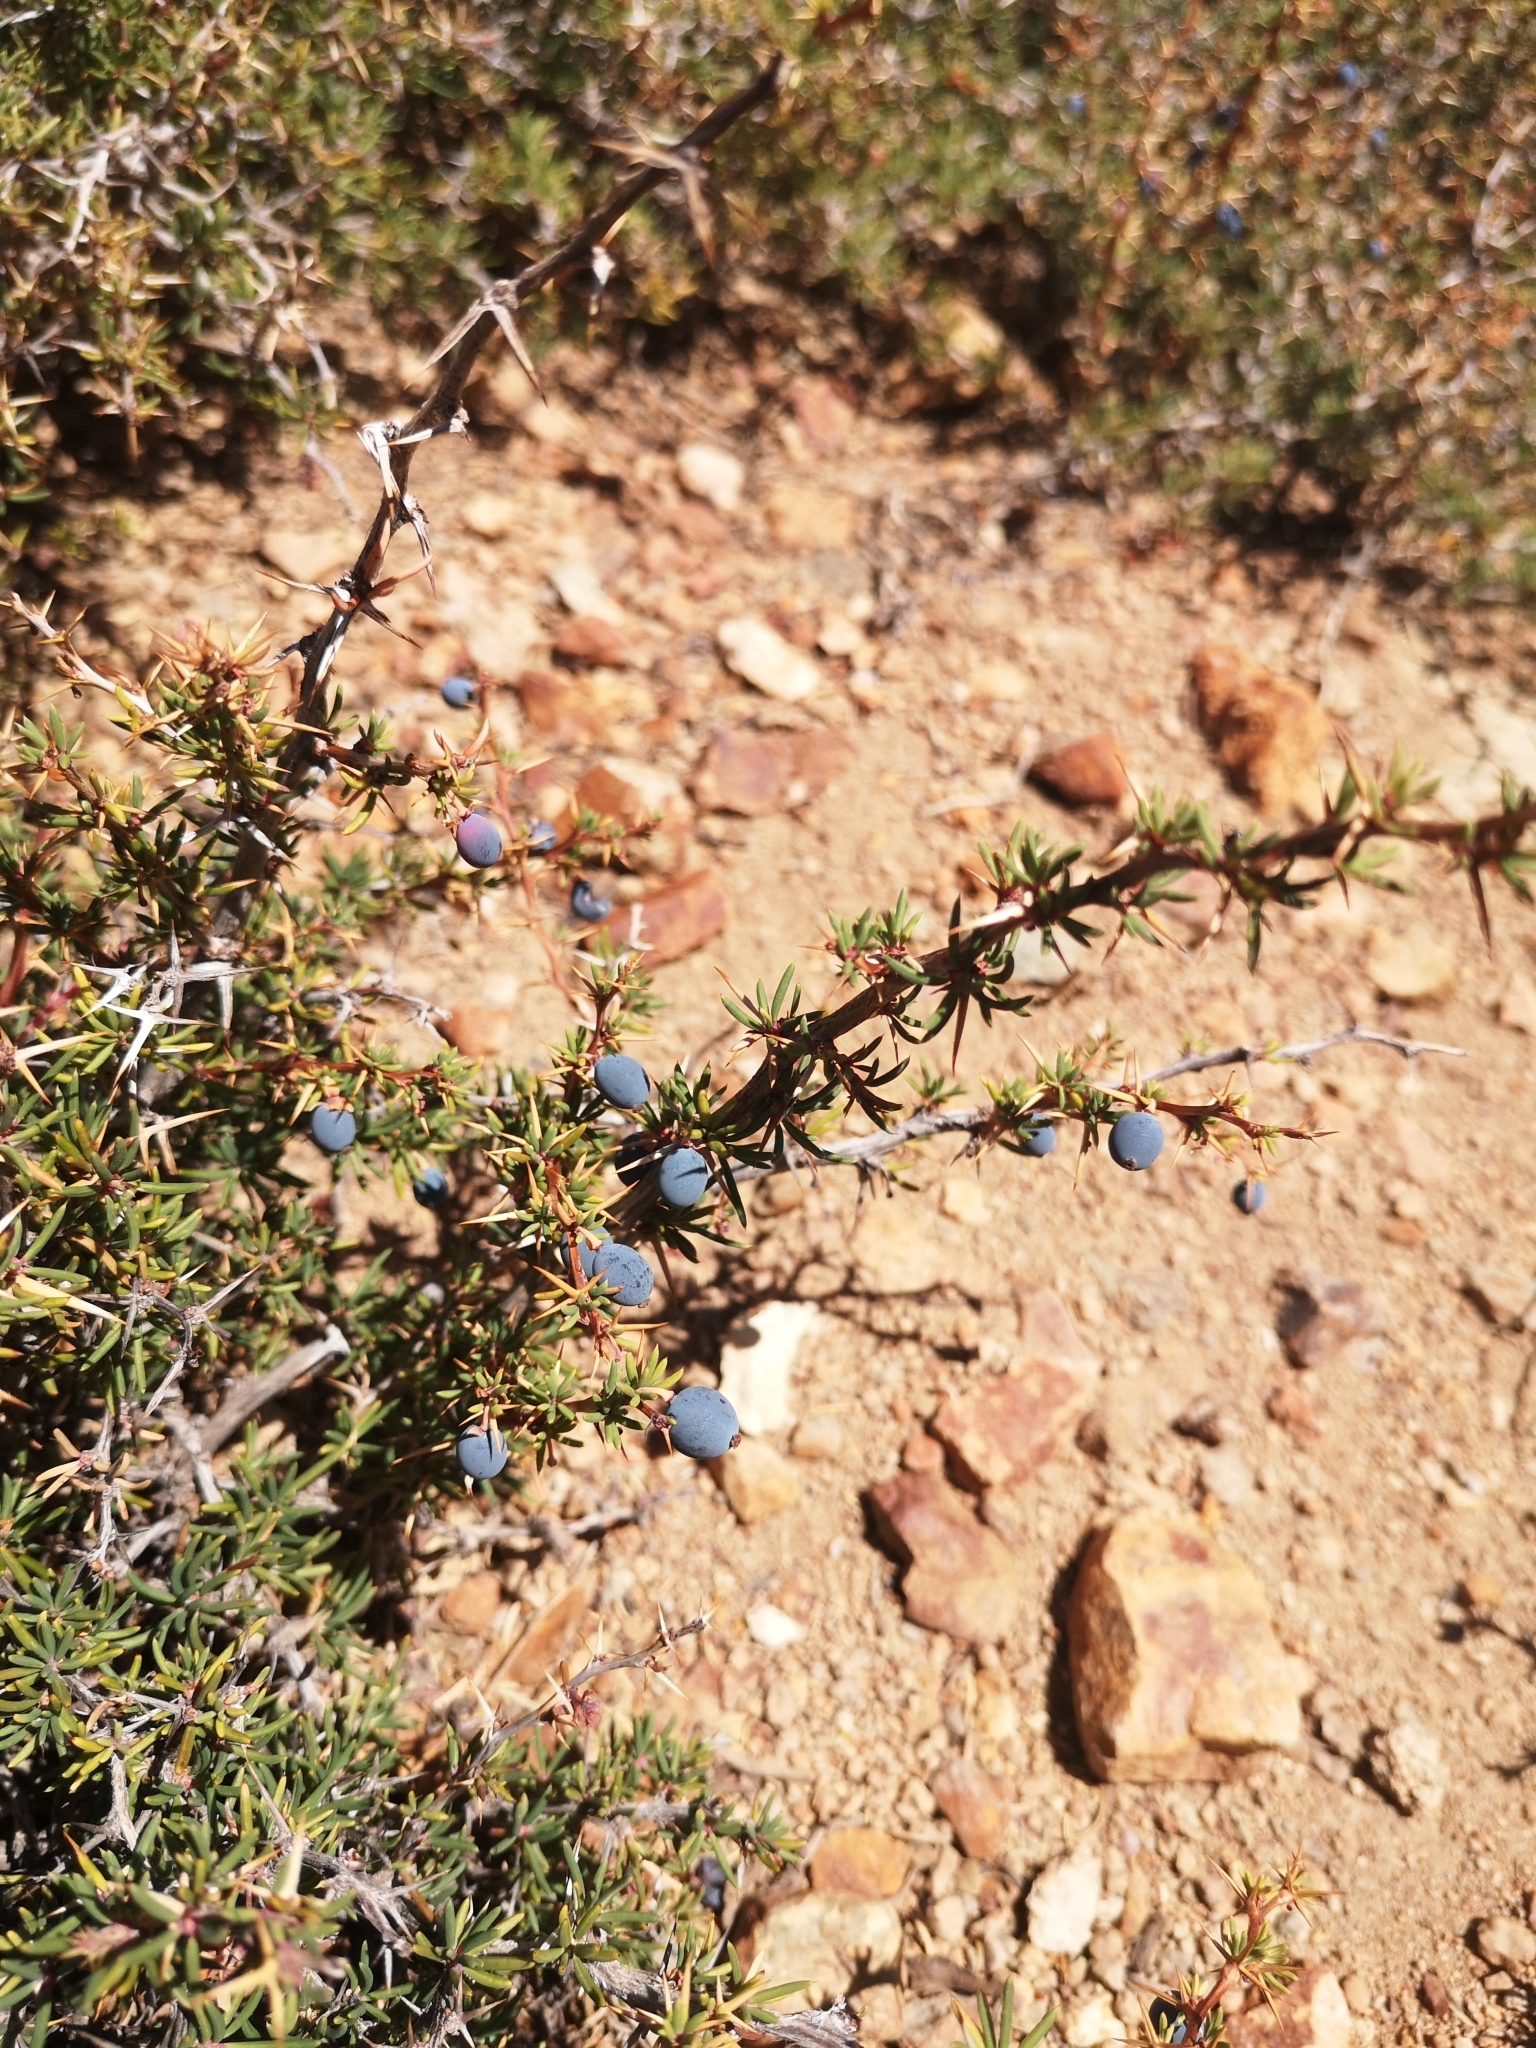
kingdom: Plantae
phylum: Tracheophyta
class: Magnoliopsida
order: Ranunculales
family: Berberidaceae
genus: Berberis
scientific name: Berberis empetrifolia
